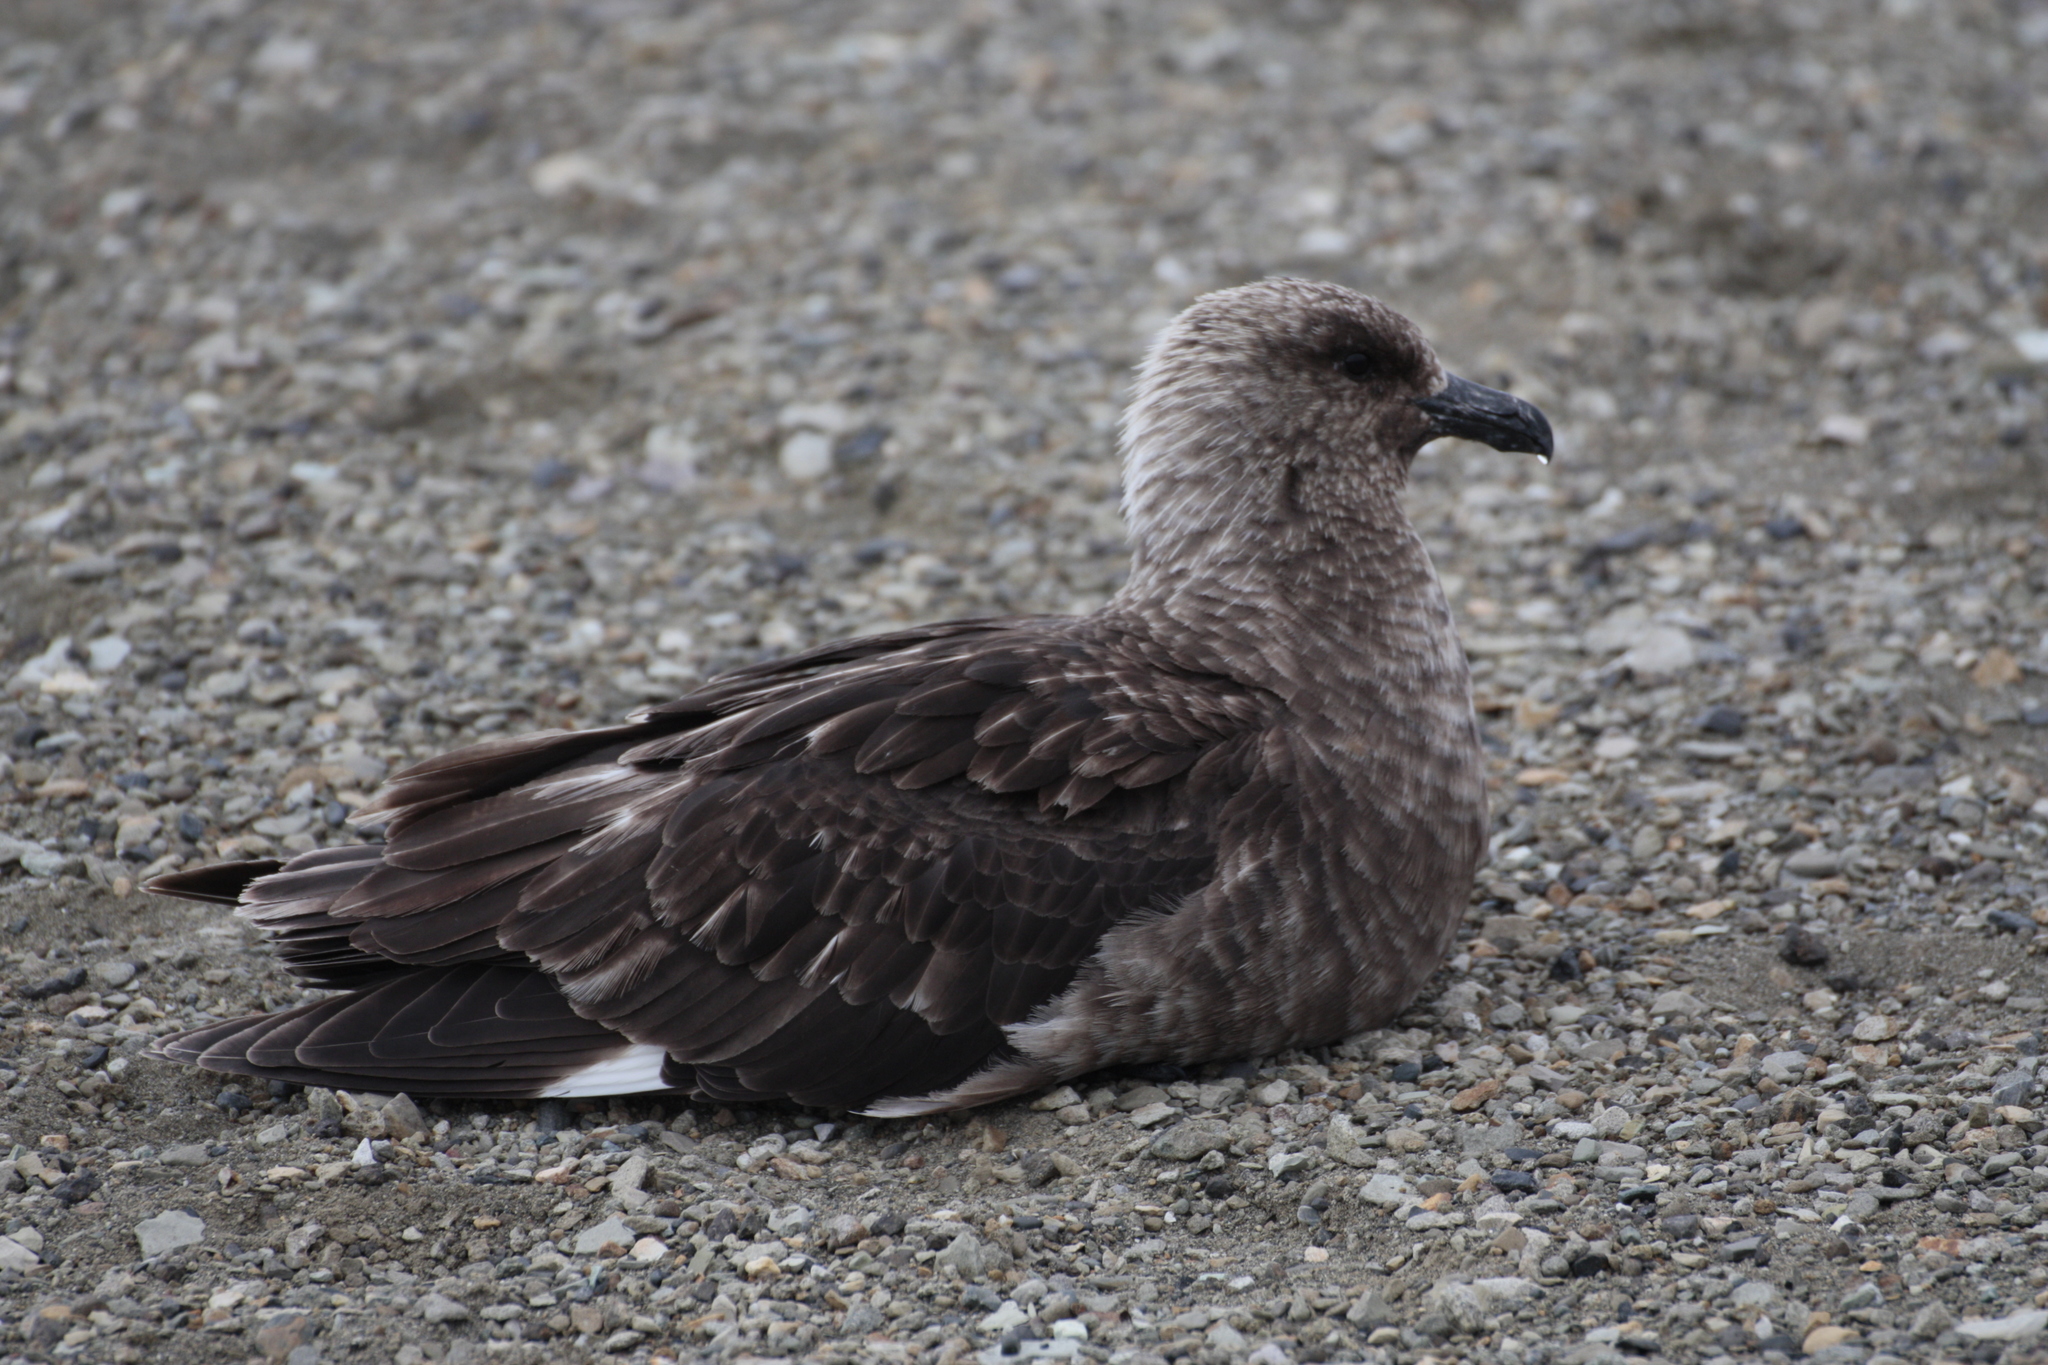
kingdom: Animalia
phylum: Chordata
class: Aves
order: Charadriiformes
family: Stercorariidae
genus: Stercorarius
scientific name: Stercorarius maccormicki
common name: South polar skua
